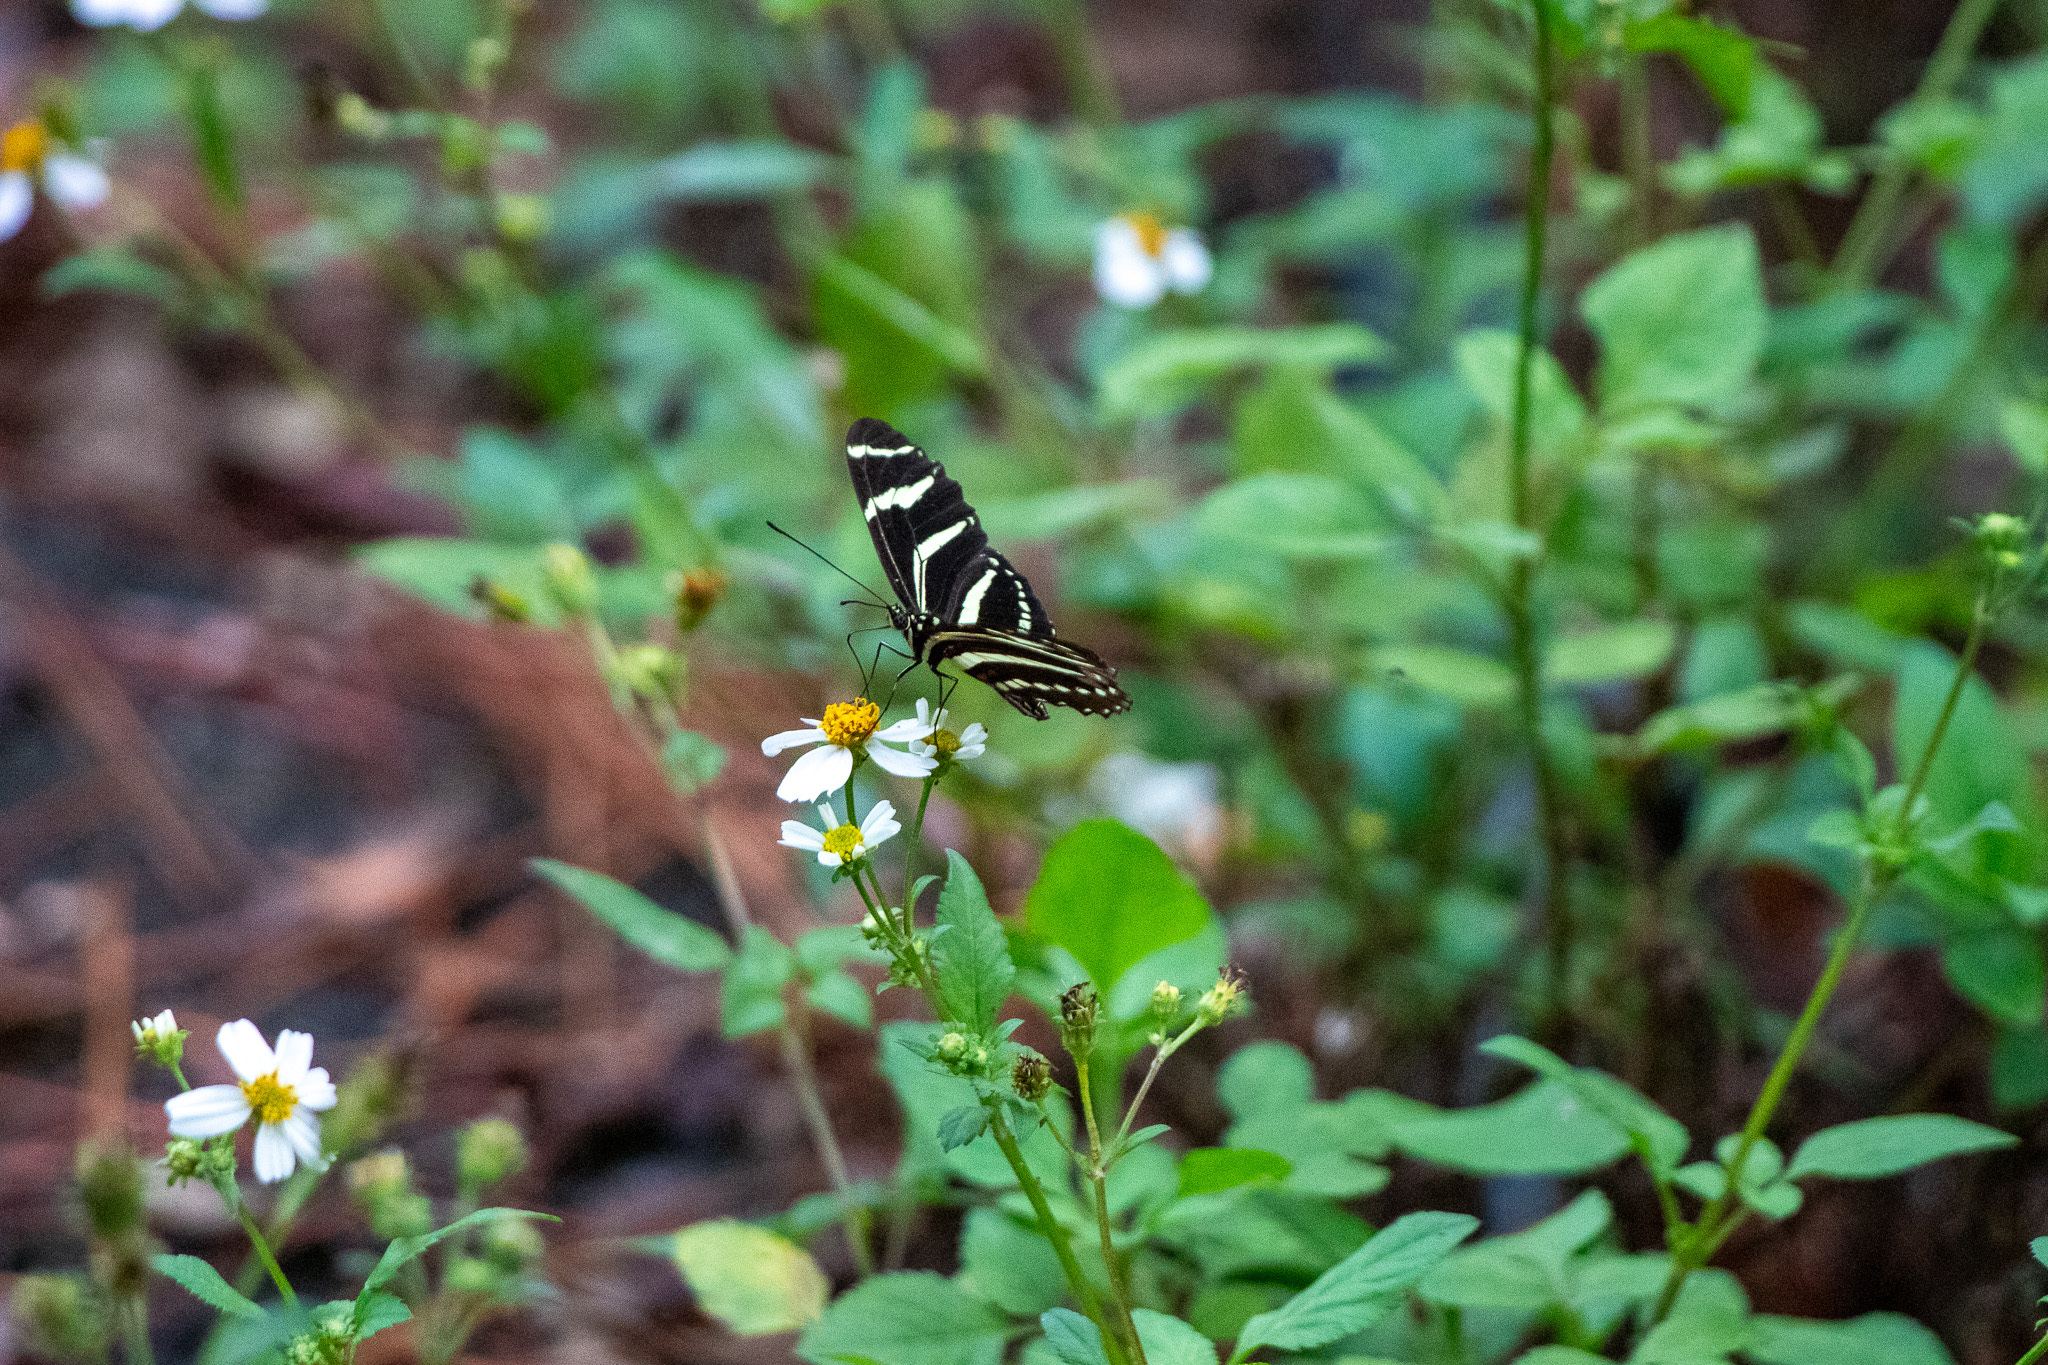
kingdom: Animalia
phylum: Arthropoda
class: Insecta
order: Lepidoptera
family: Nymphalidae
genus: Heliconius
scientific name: Heliconius charithonia
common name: Zebra long wing
